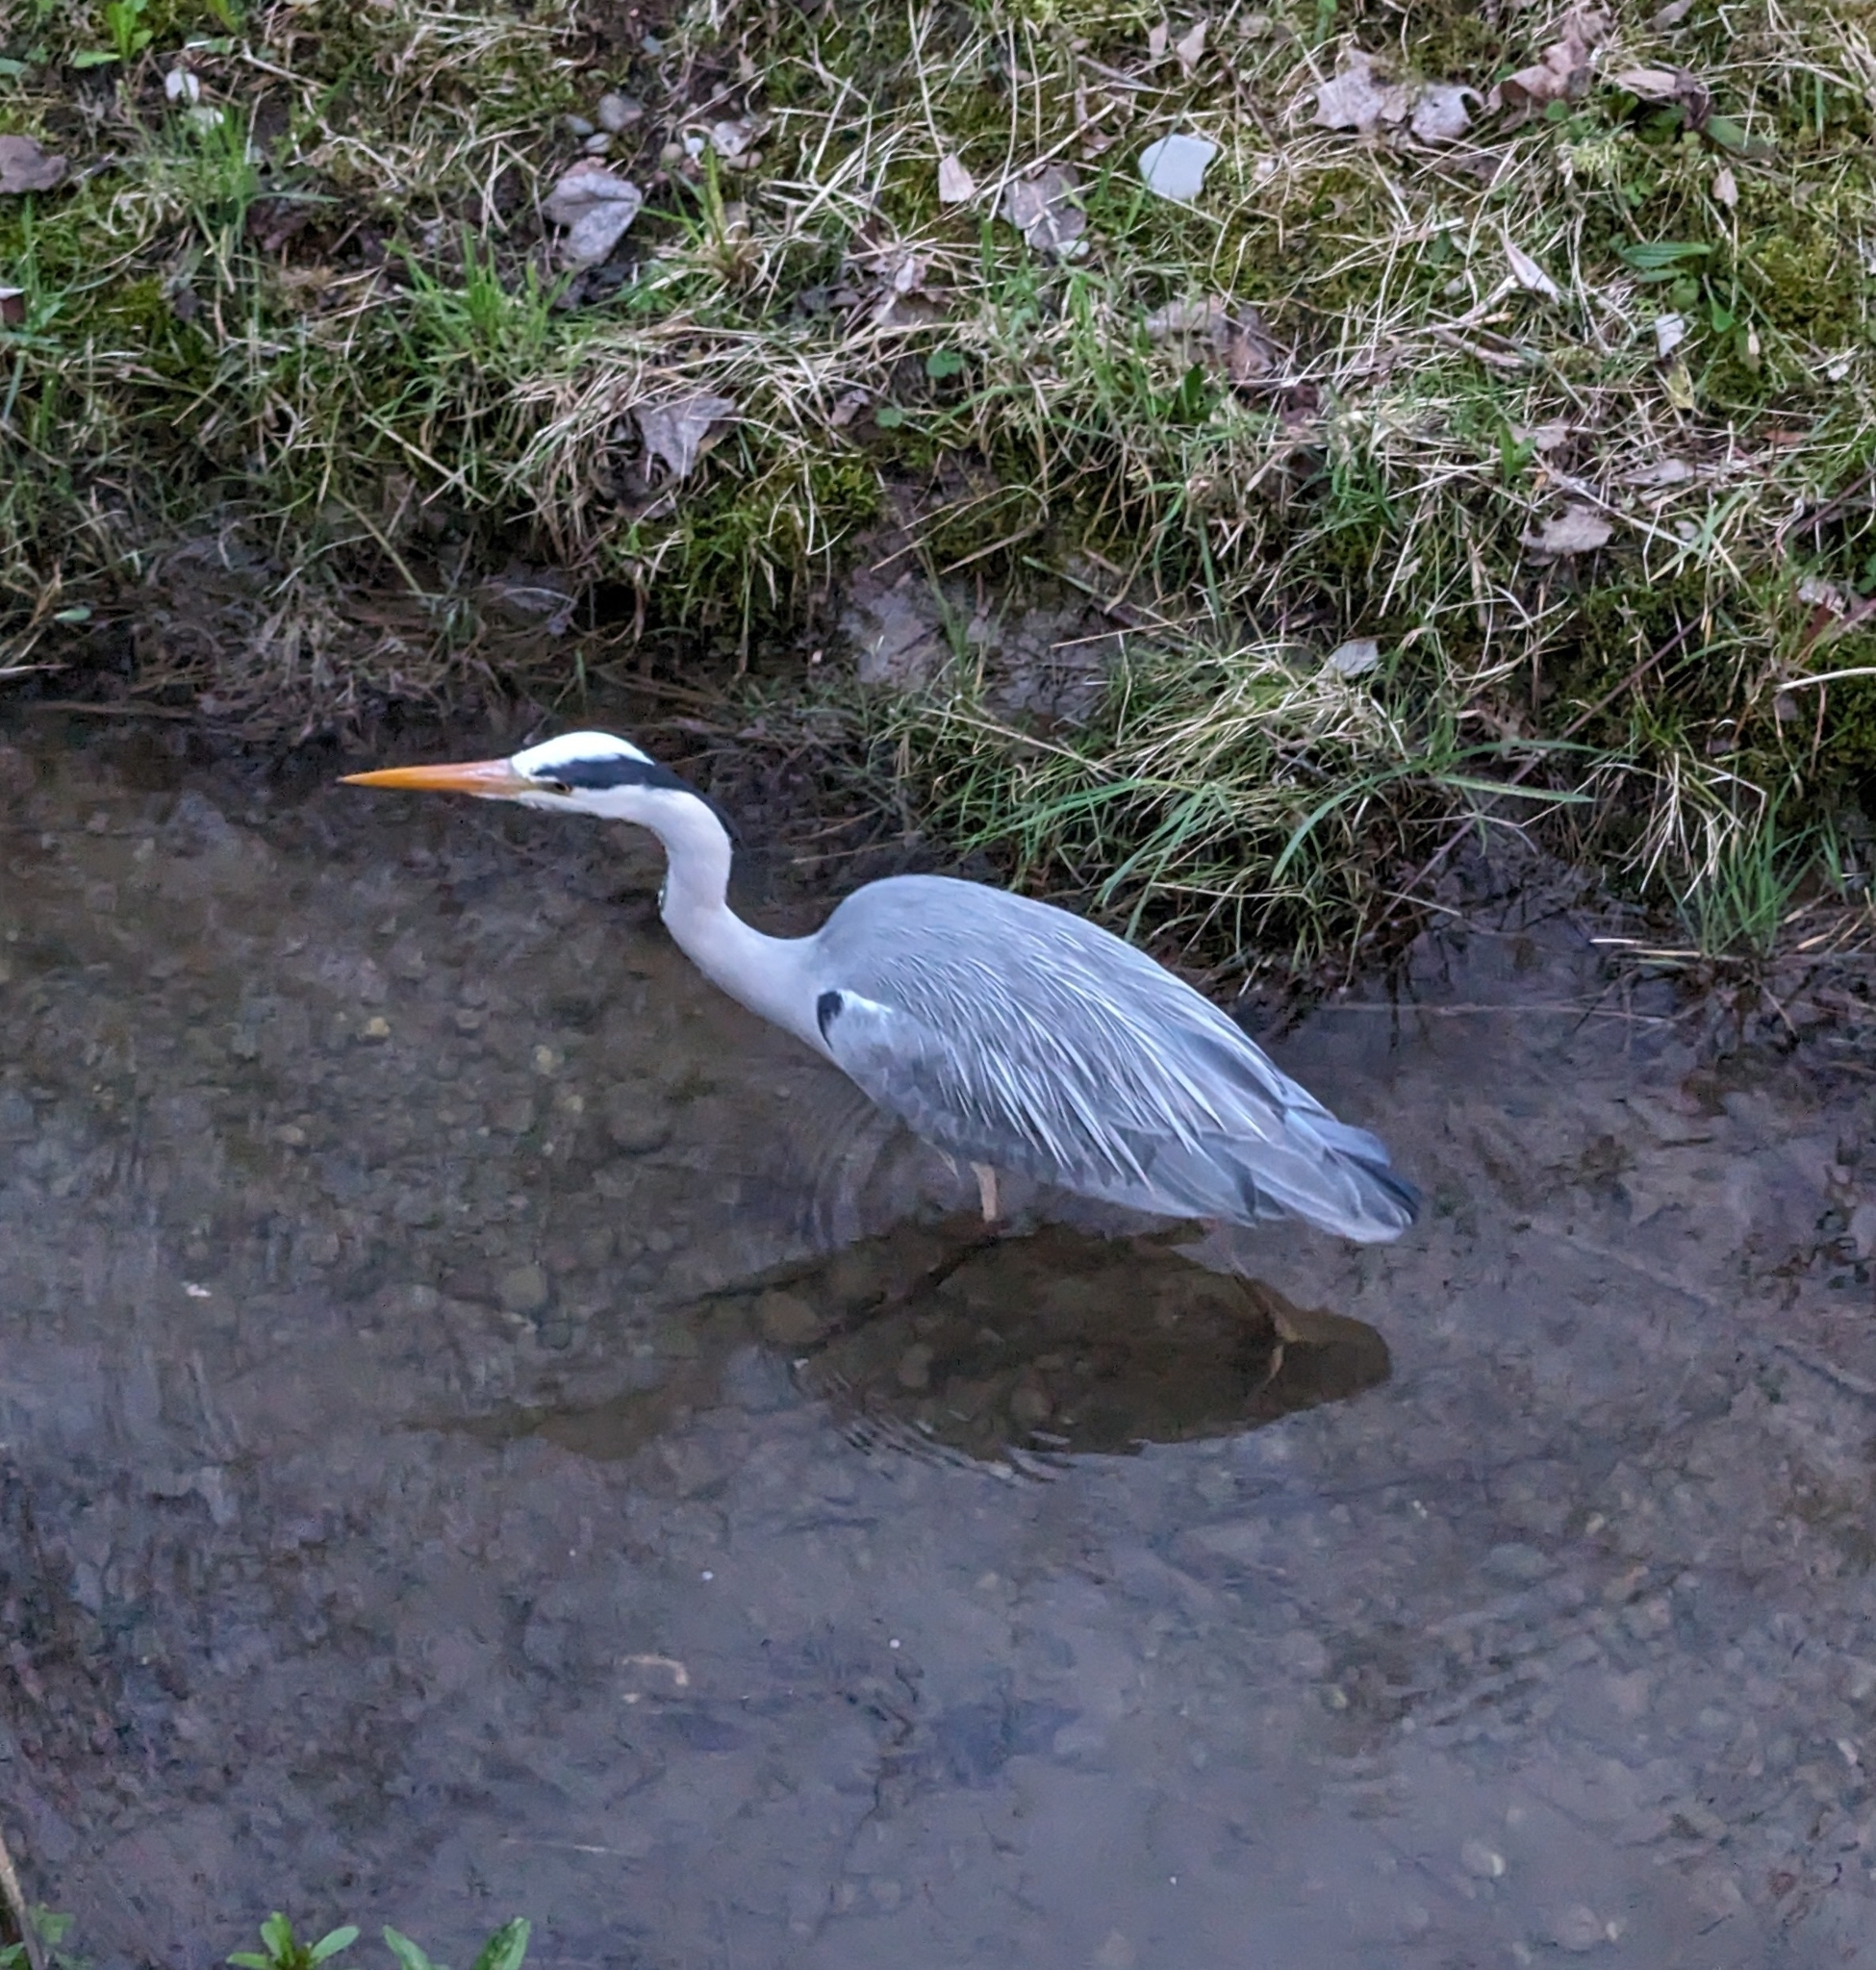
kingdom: Animalia
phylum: Chordata
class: Aves
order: Pelecaniformes
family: Ardeidae
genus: Ardea
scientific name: Ardea cinerea
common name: Grey heron
